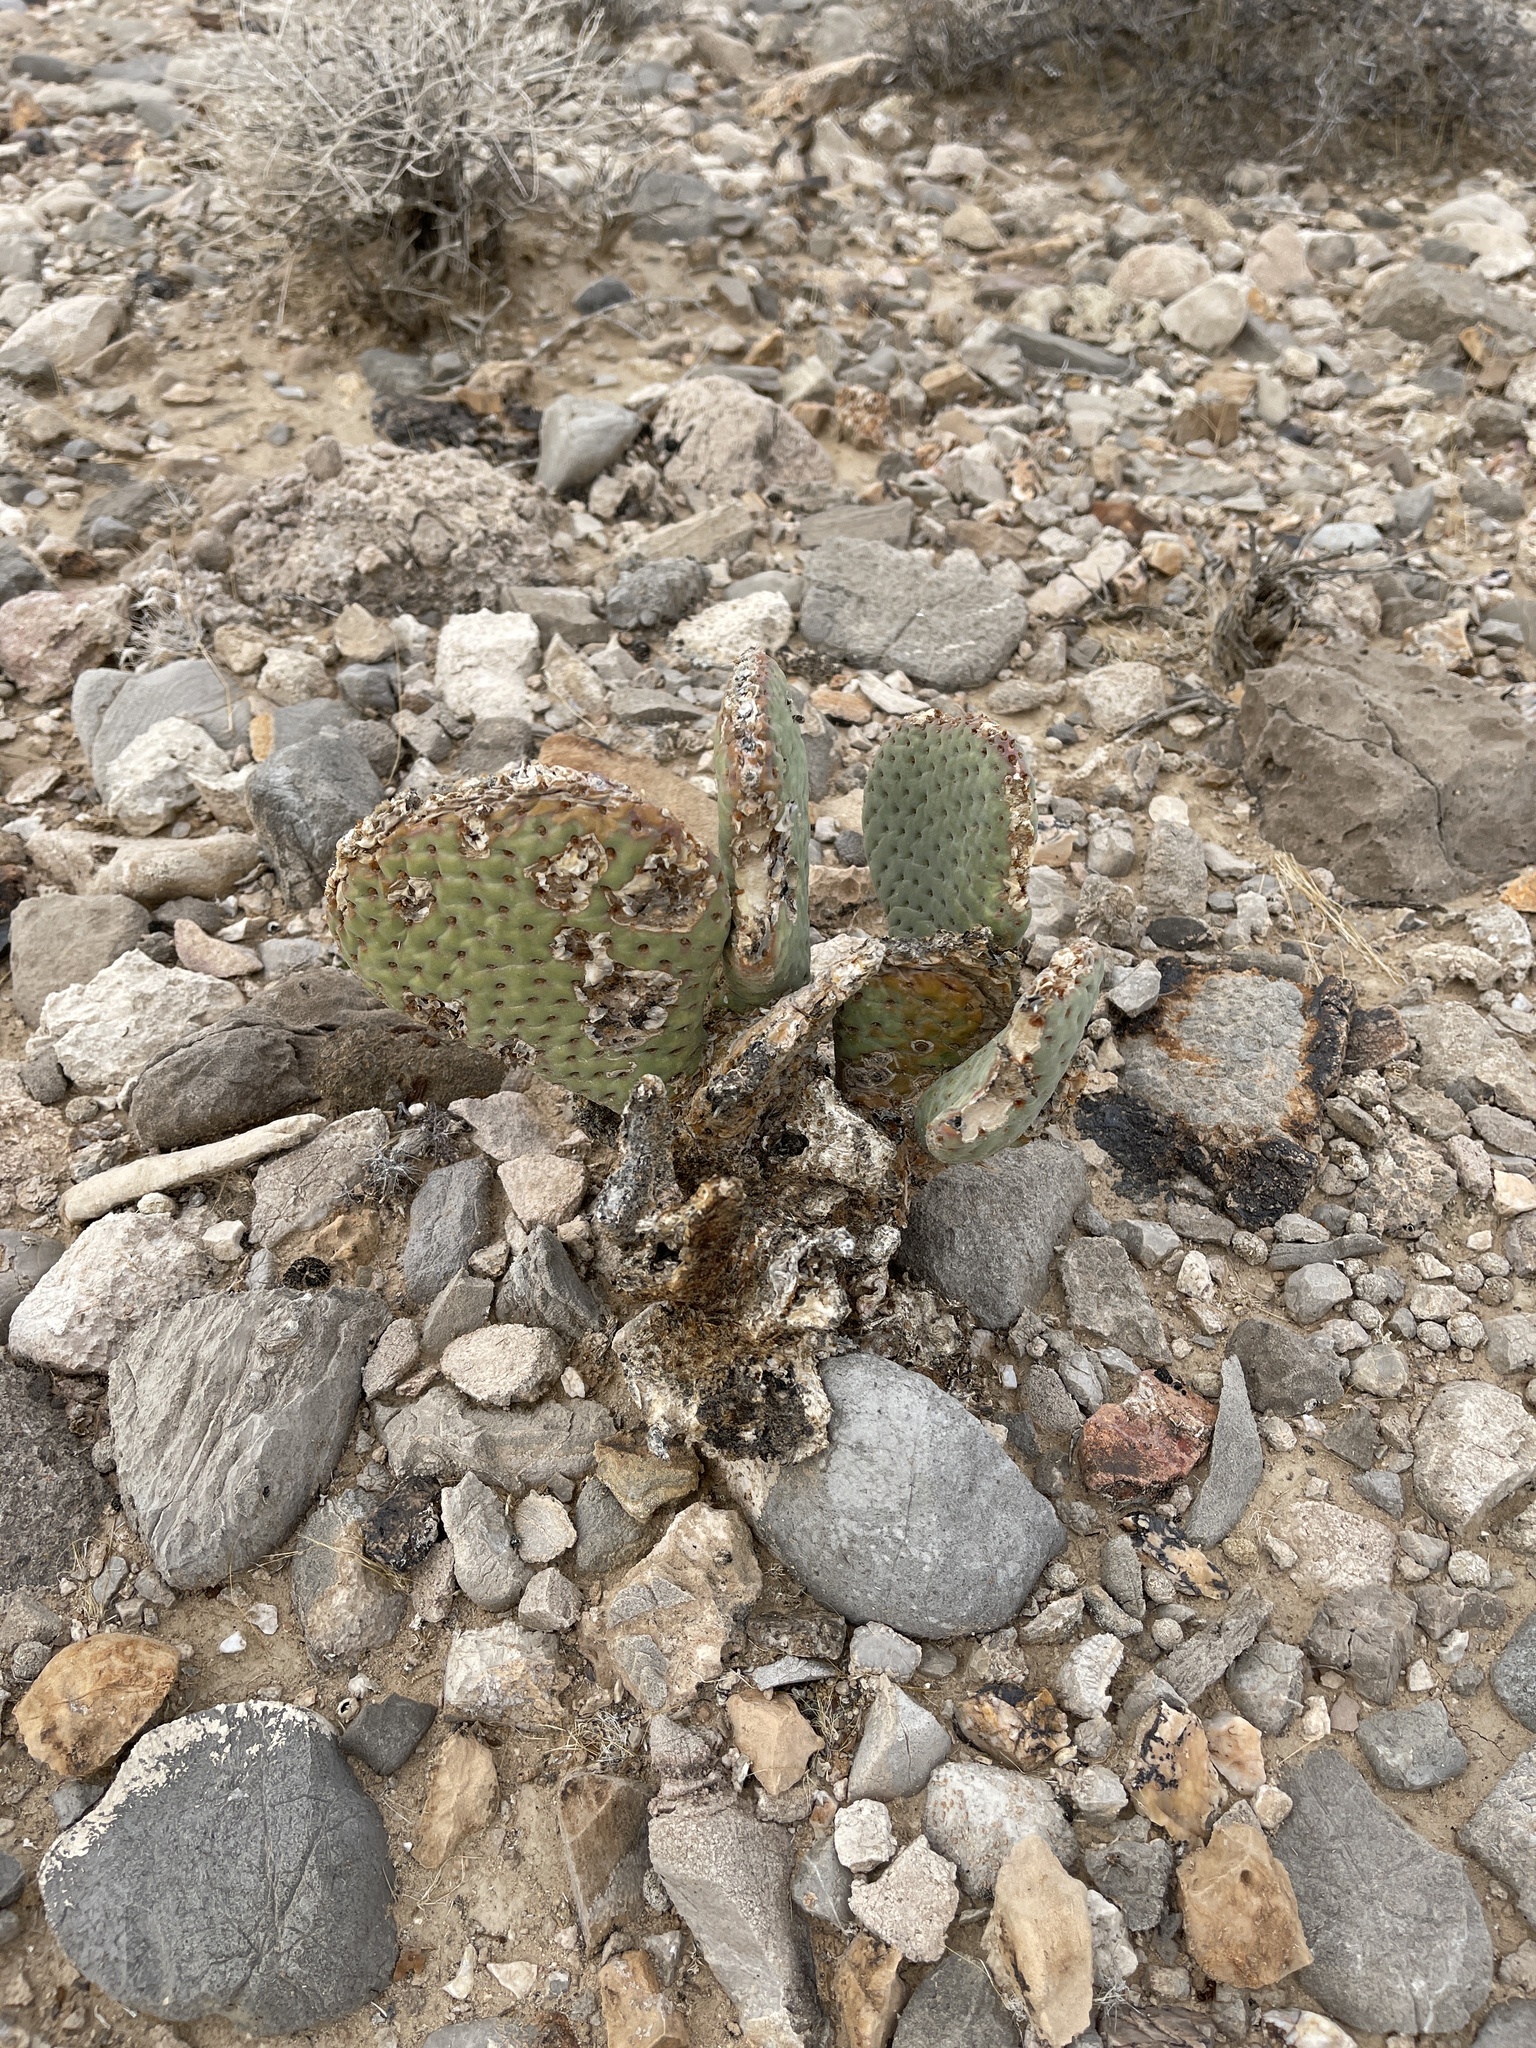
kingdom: Plantae
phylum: Tracheophyta
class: Magnoliopsida
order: Caryophyllales
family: Cactaceae
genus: Opuntia
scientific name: Opuntia basilaris
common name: Beavertail prickly-pear
